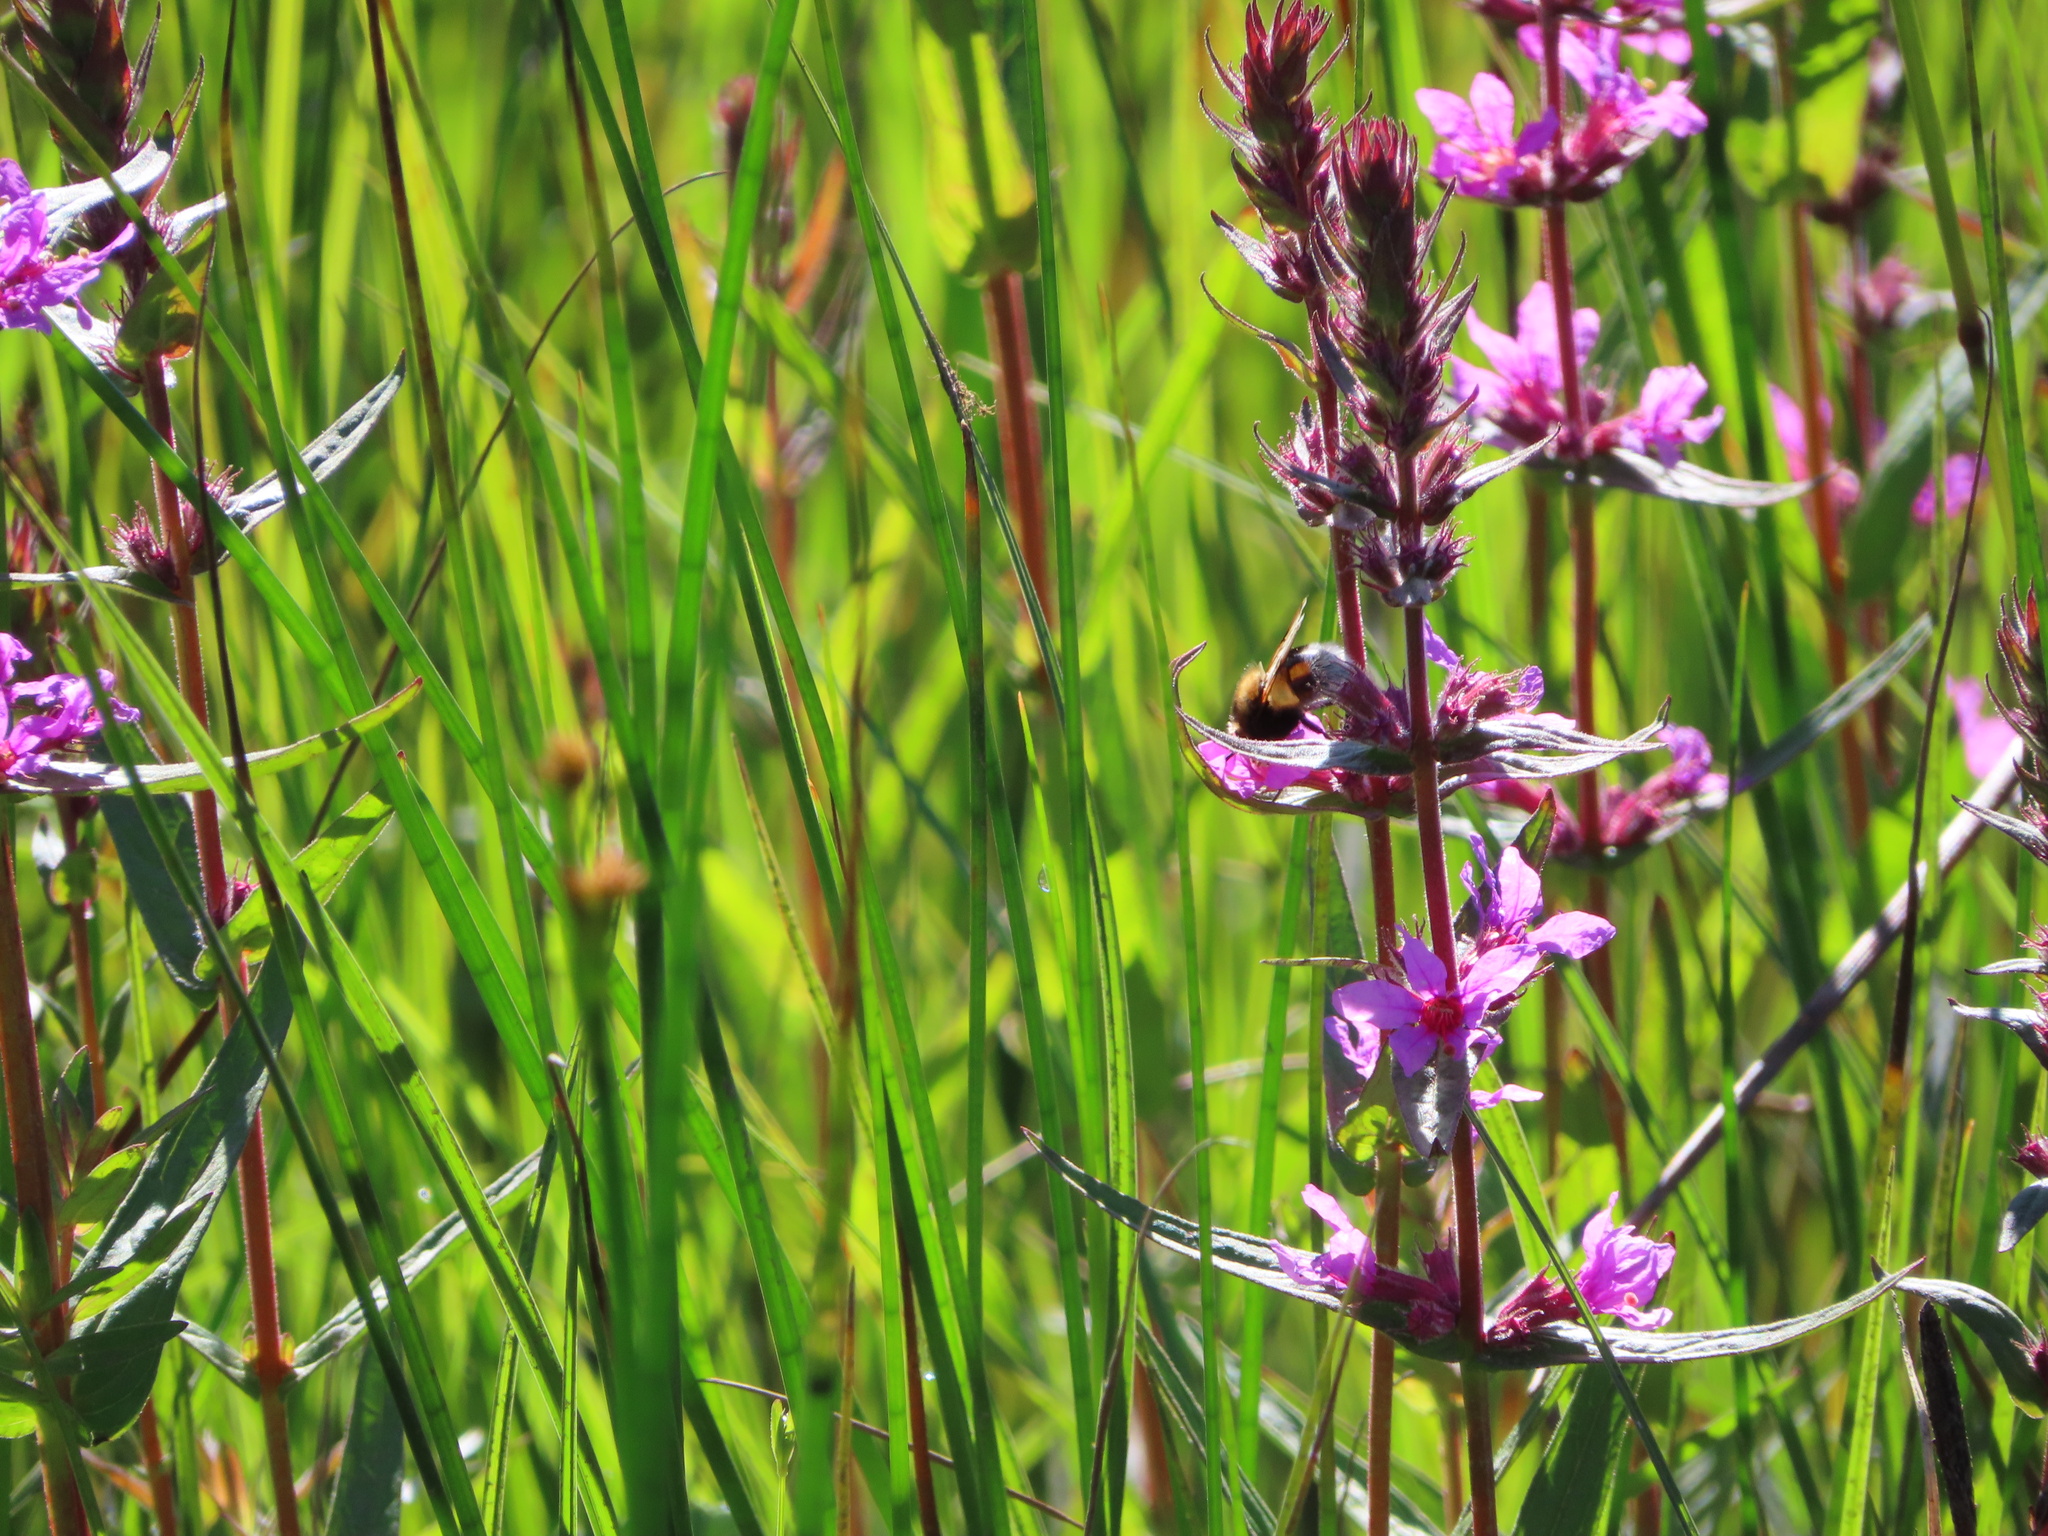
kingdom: Plantae
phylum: Tracheophyta
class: Magnoliopsida
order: Myrtales
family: Lythraceae
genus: Lythrum
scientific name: Lythrum salicaria
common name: Purple loosestrife
